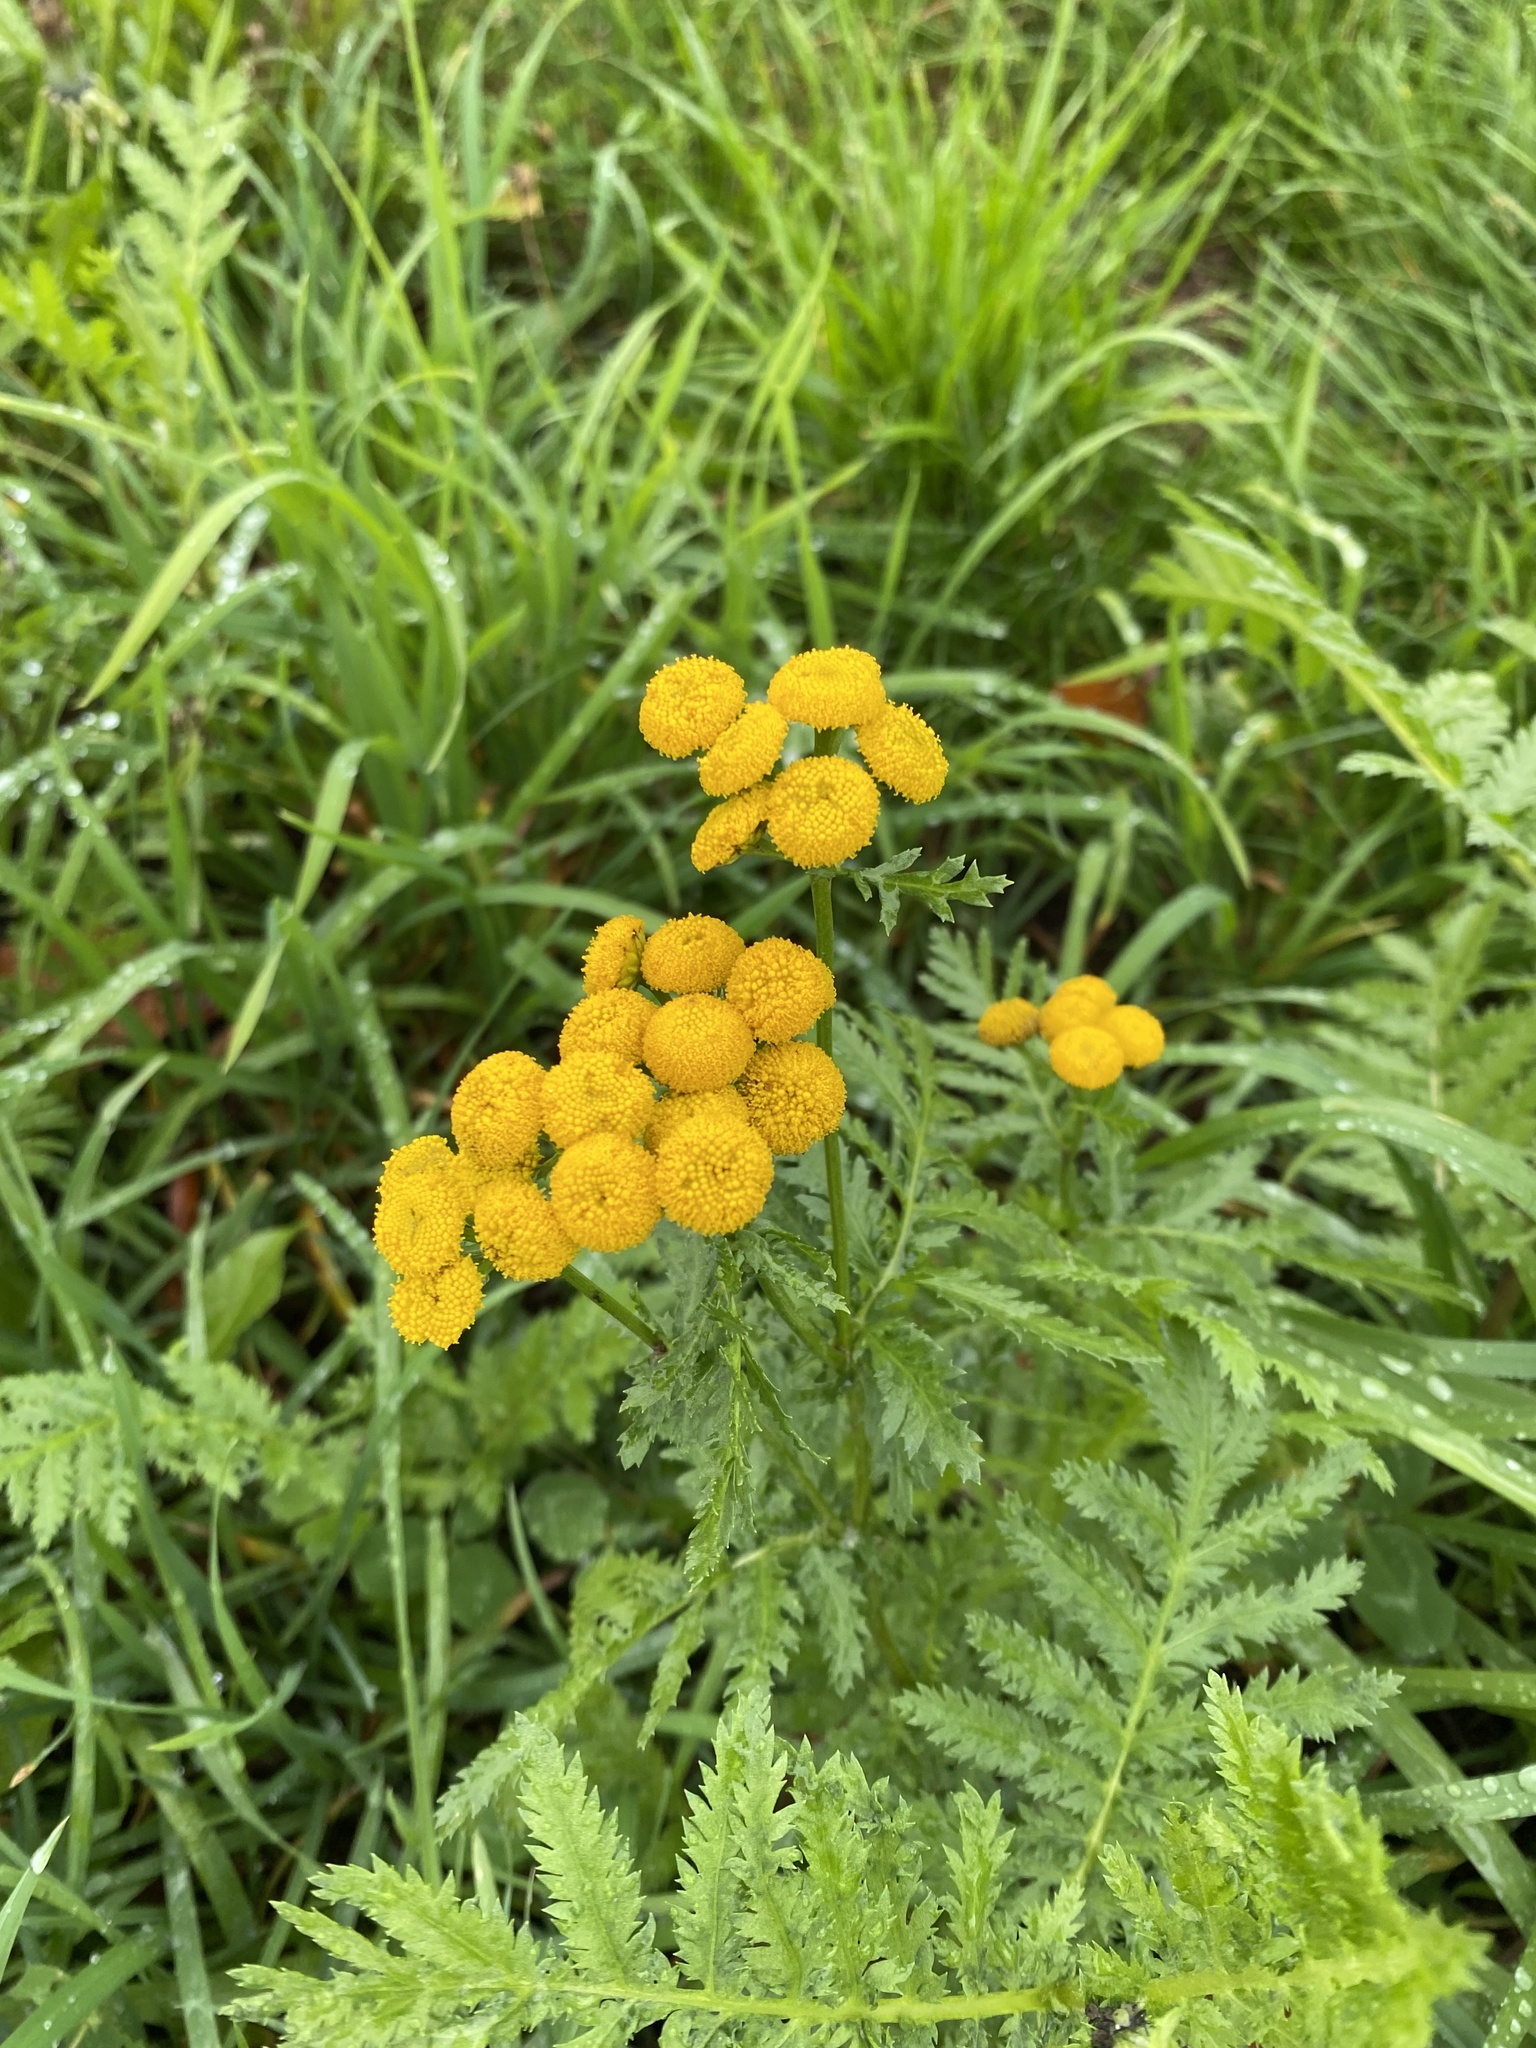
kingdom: Plantae
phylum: Tracheophyta
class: Magnoliopsida
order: Asterales
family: Asteraceae
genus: Tanacetum
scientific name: Tanacetum vulgare
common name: Common tansy
